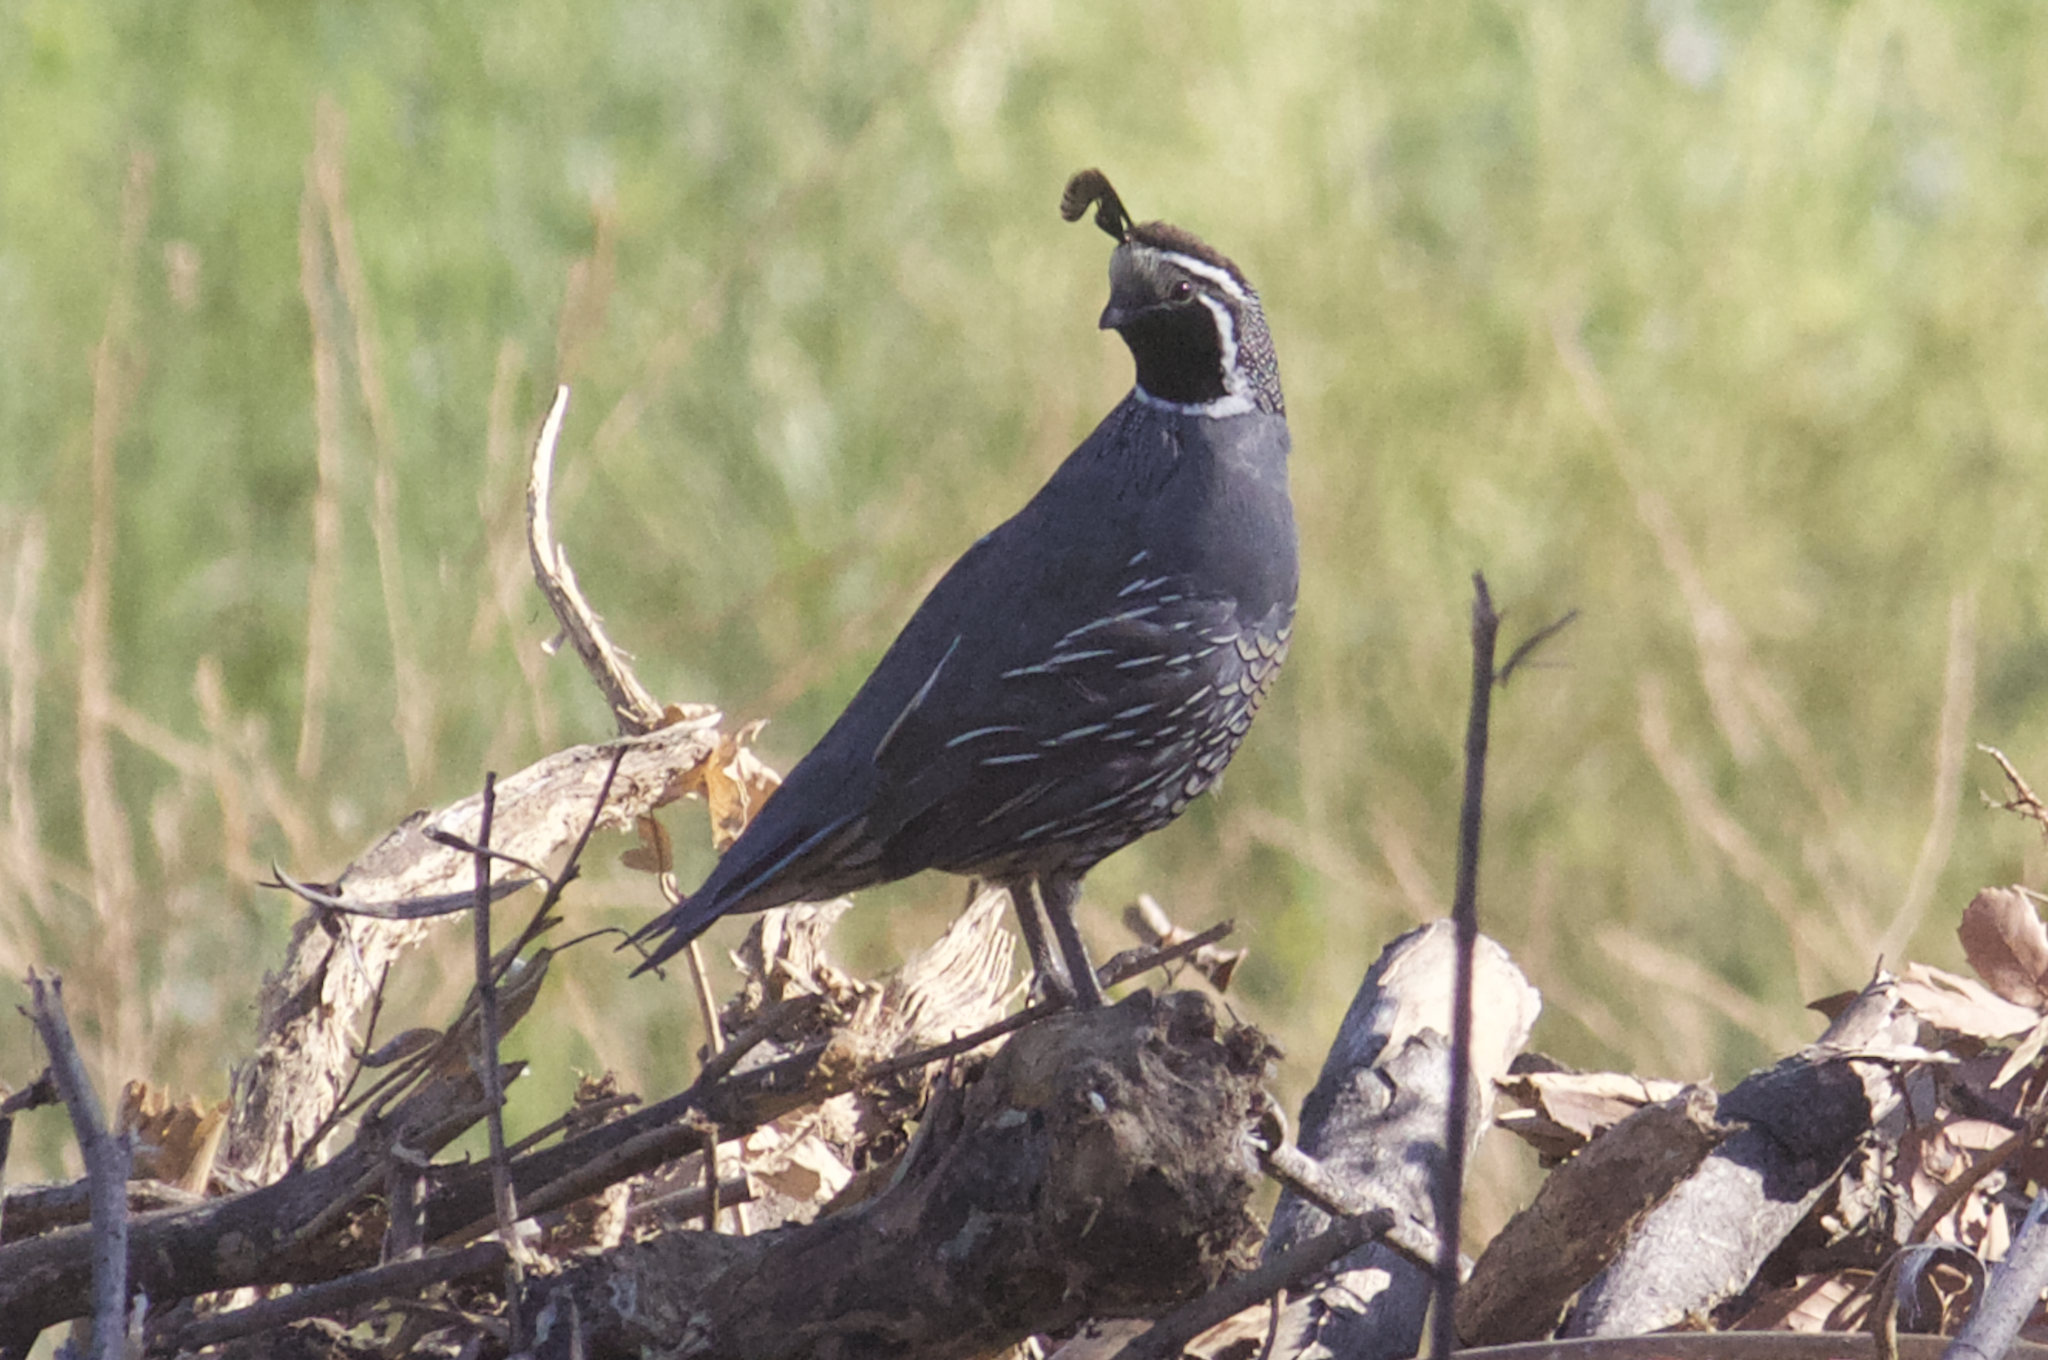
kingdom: Animalia
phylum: Chordata
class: Aves
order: Galliformes
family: Odontophoridae
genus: Callipepla
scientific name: Callipepla californica
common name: California quail
